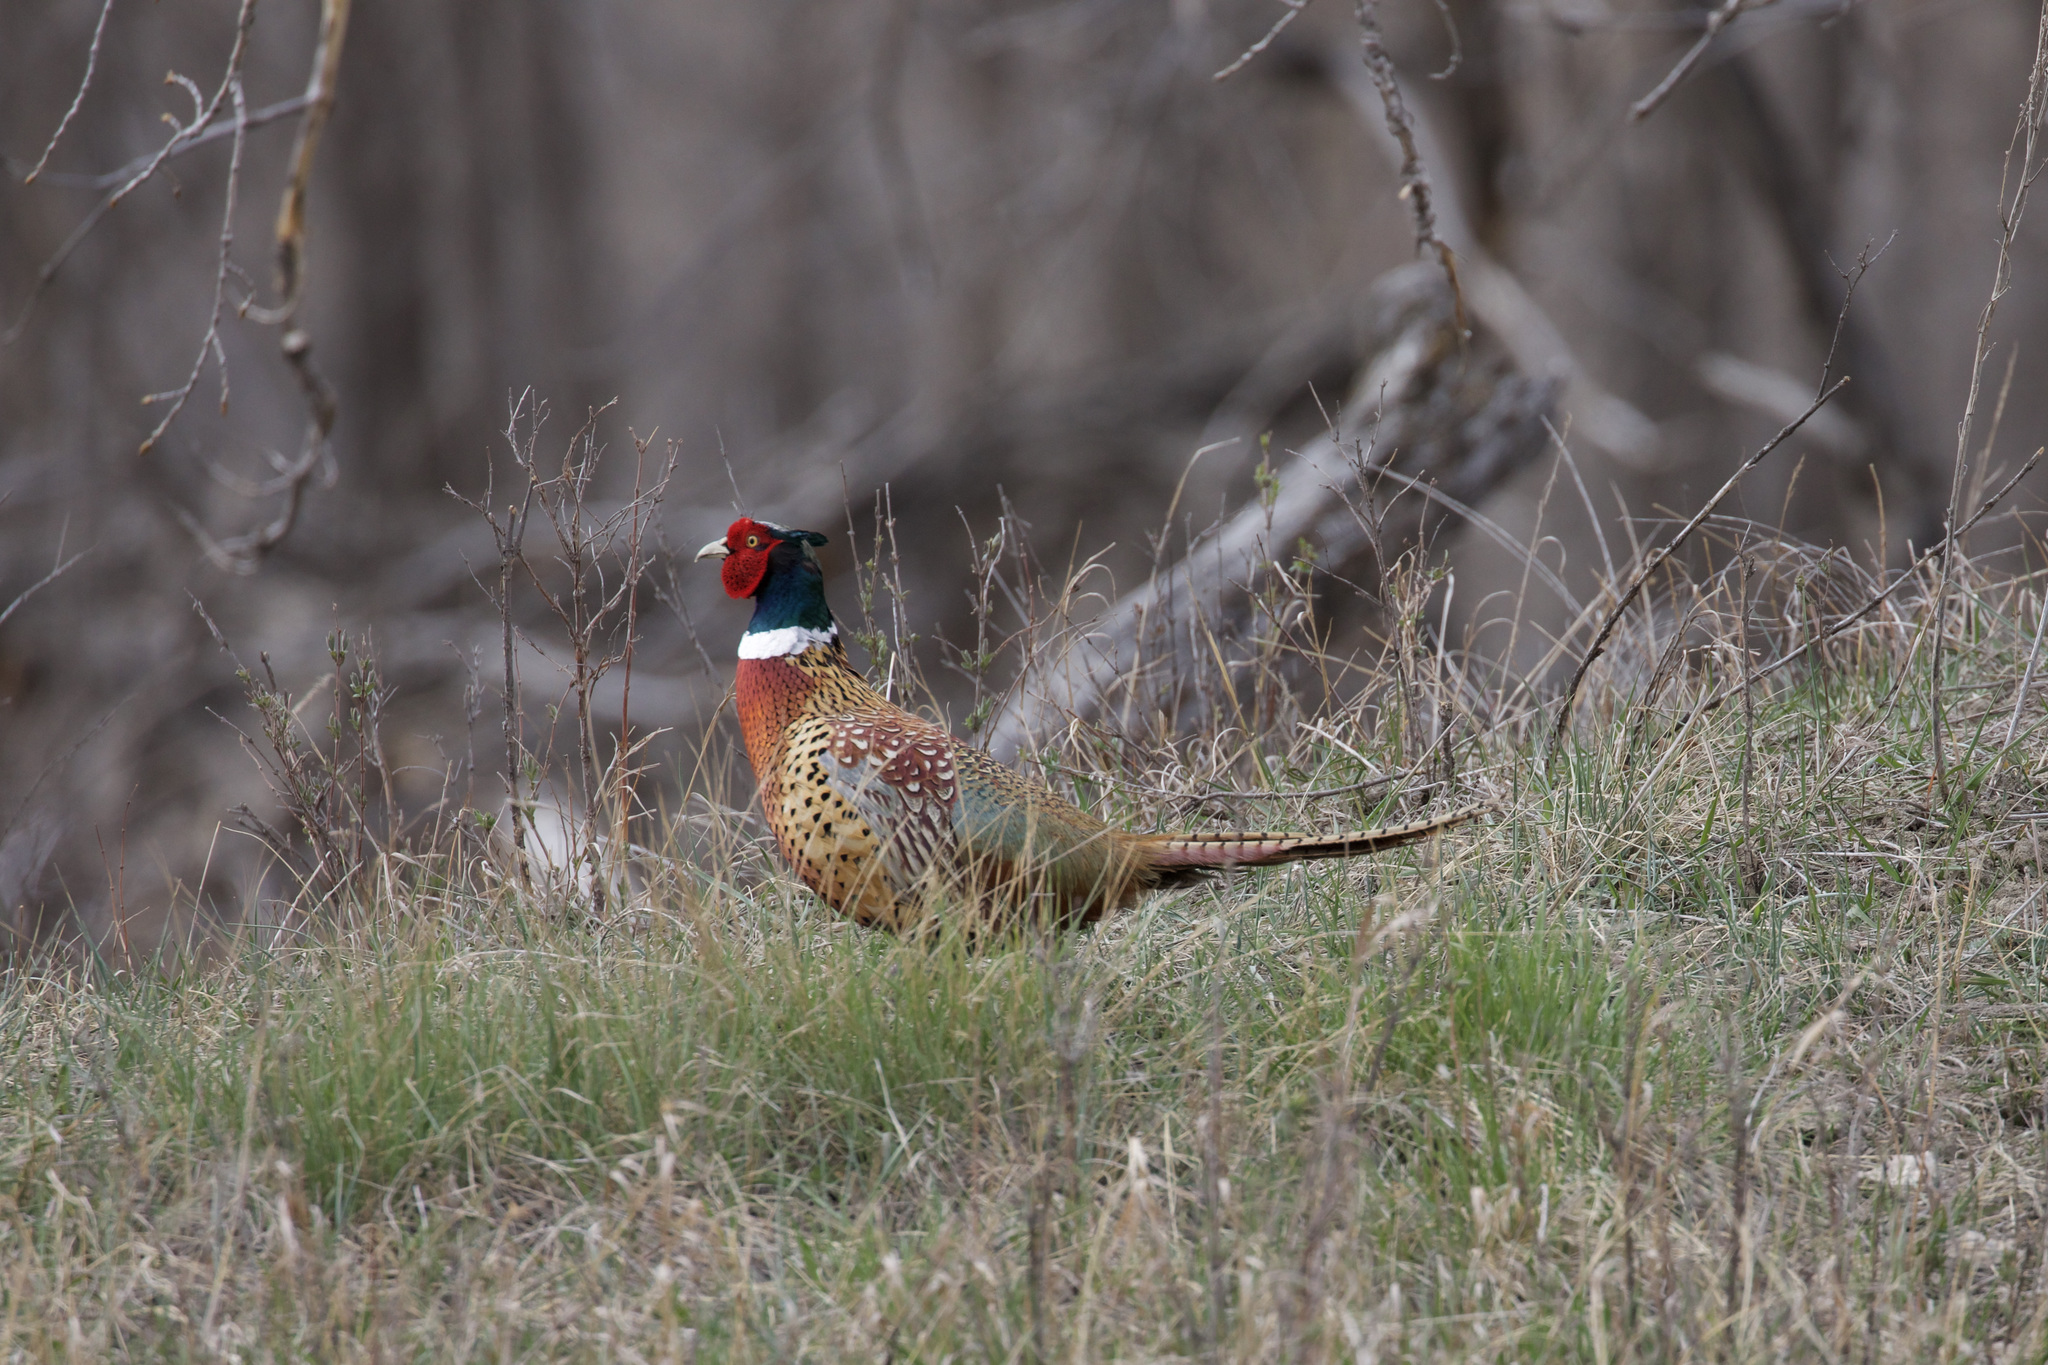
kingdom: Animalia
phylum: Chordata
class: Aves
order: Galliformes
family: Phasianidae
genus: Phasianus
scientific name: Phasianus colchicus
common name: Common pheasant
